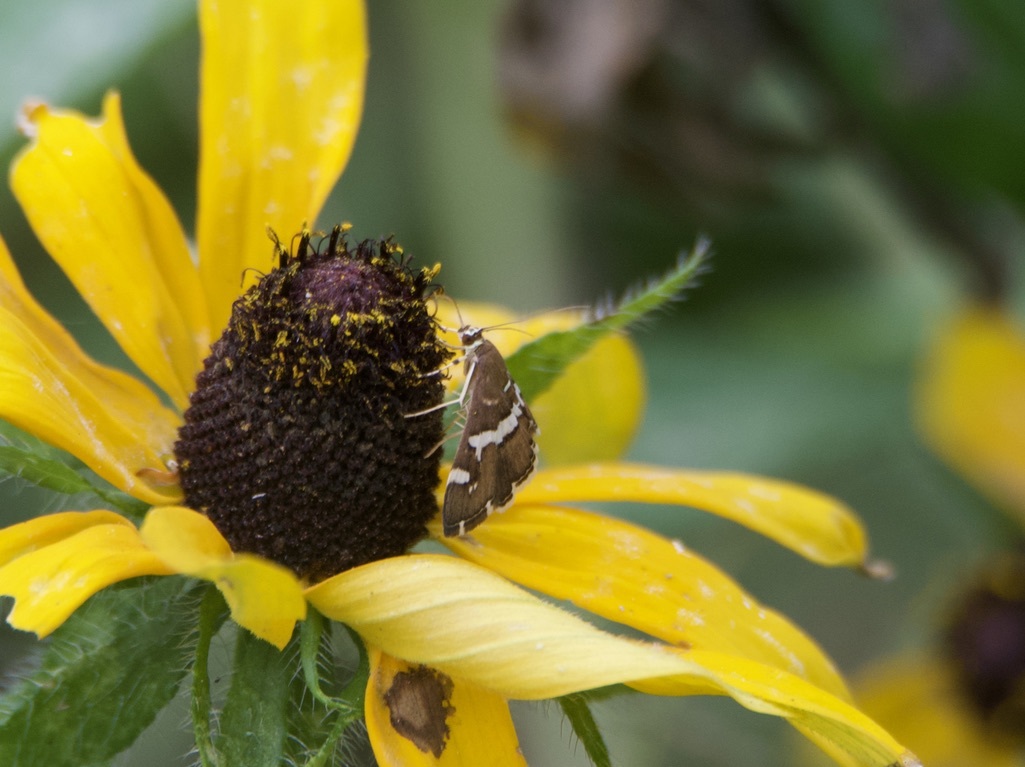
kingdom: Animalia
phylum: Arthropoda
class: Insecta
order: Lepidoptera
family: Crambidae
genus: Spoladea
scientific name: Spoladea recurvalis
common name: Beet webworm moth
